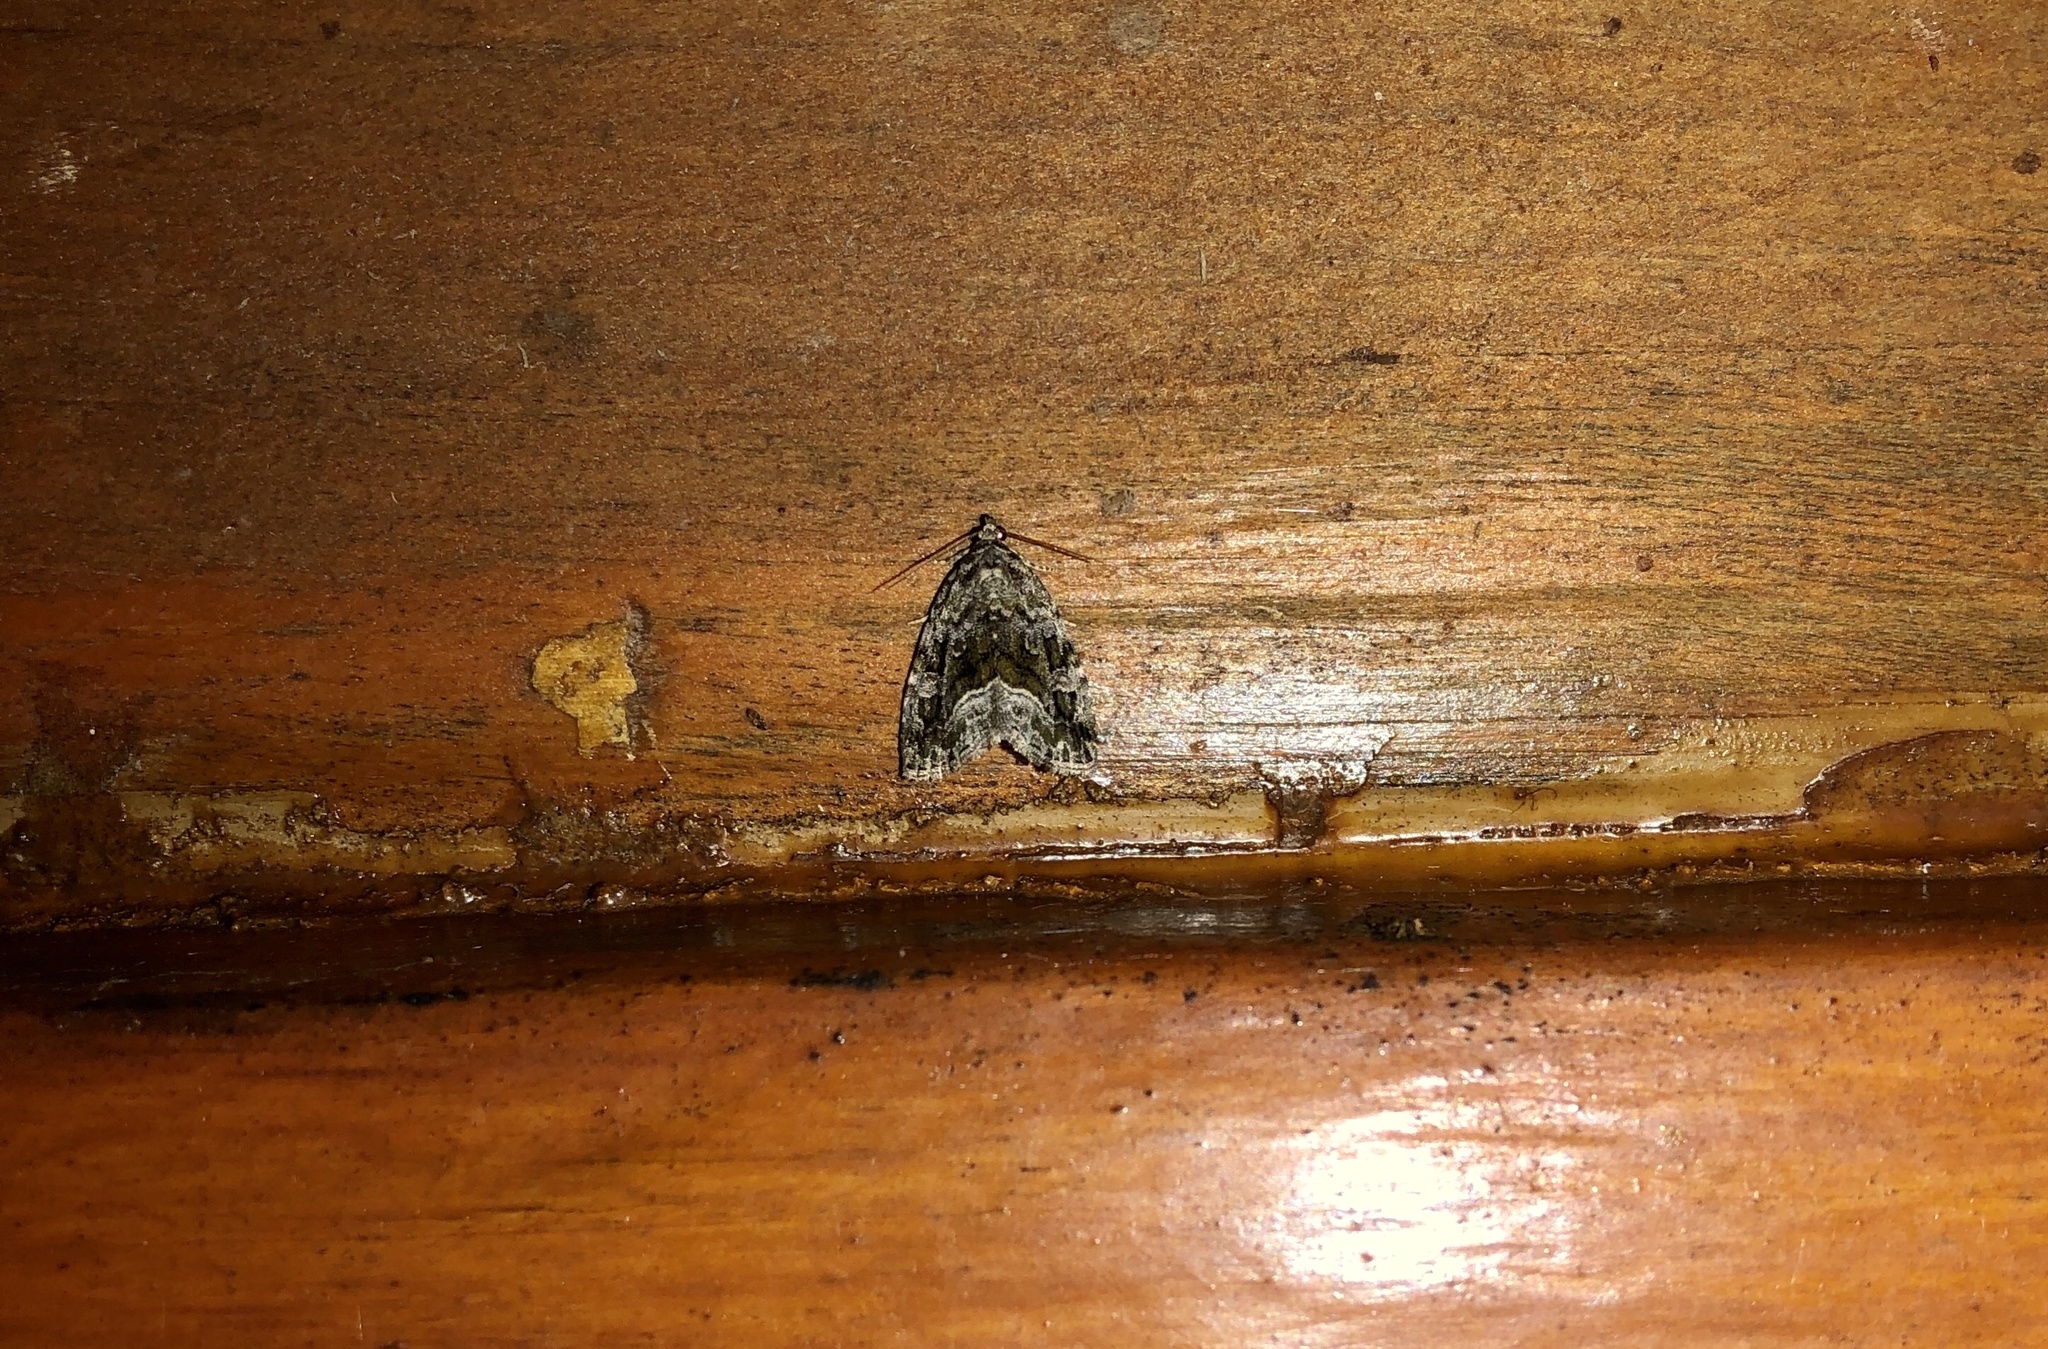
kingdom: Animalia
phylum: Arthropoda
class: Insecta
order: Lepidoptera
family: Noctuidae
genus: Protodeltote
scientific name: Protodeltote muscosula
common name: Large mossy glyph
